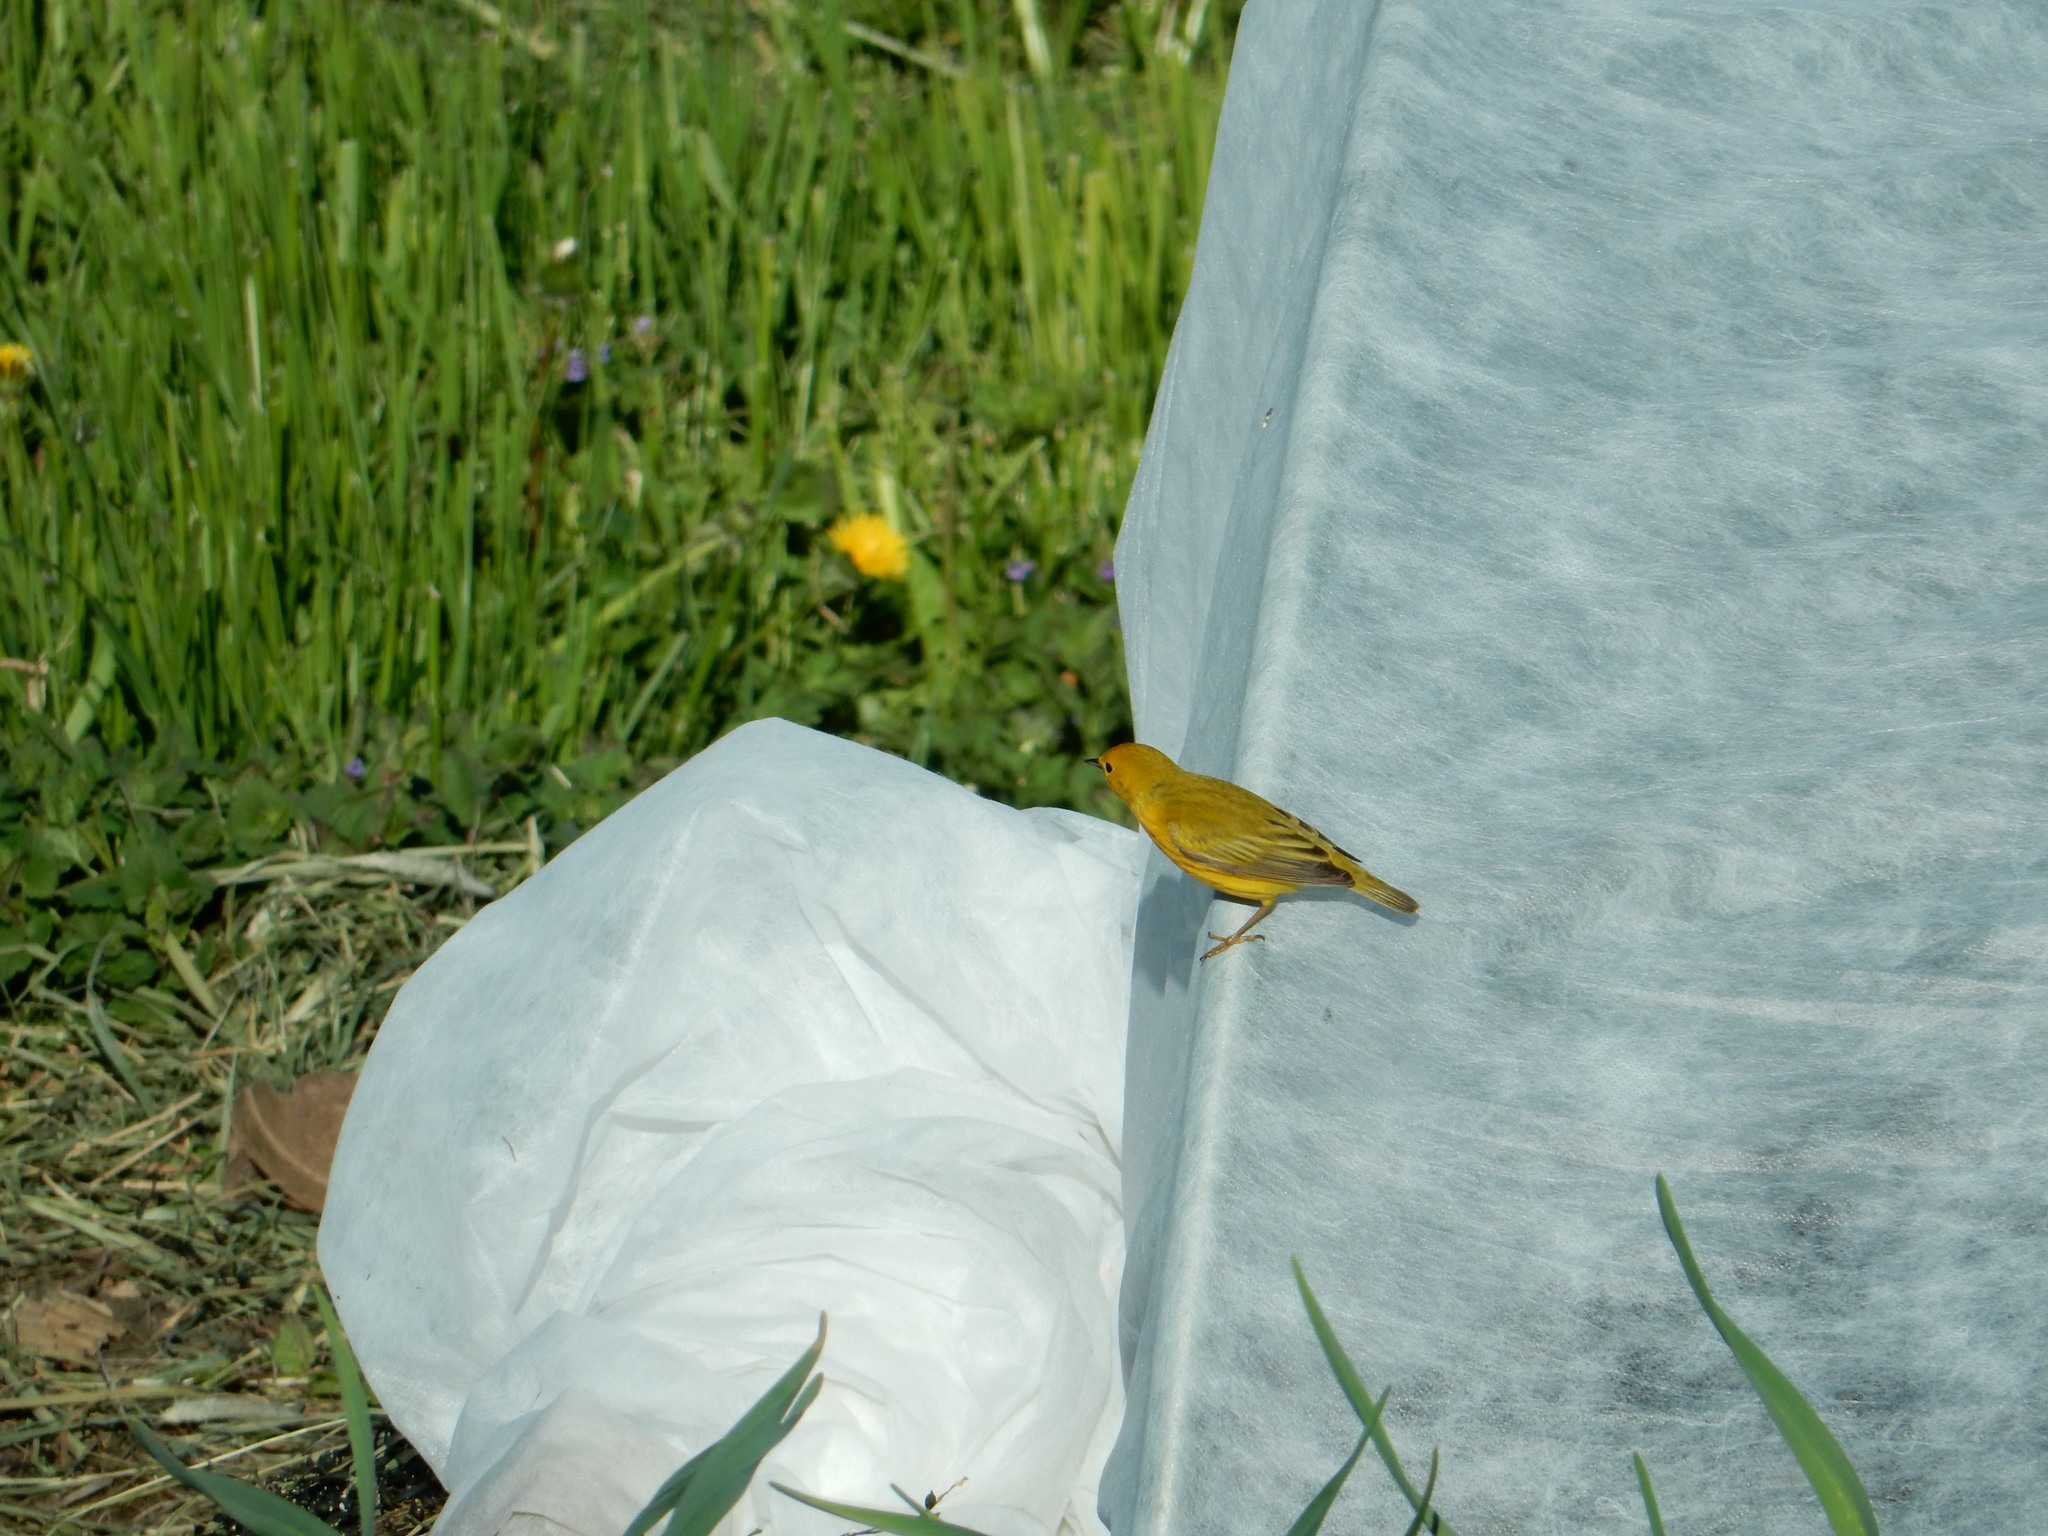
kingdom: Animalia
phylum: Chordata
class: Aves
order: Passeriformes
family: Parulidae
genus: Setophaga
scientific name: Setophaga petechia
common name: Yellow warbler
